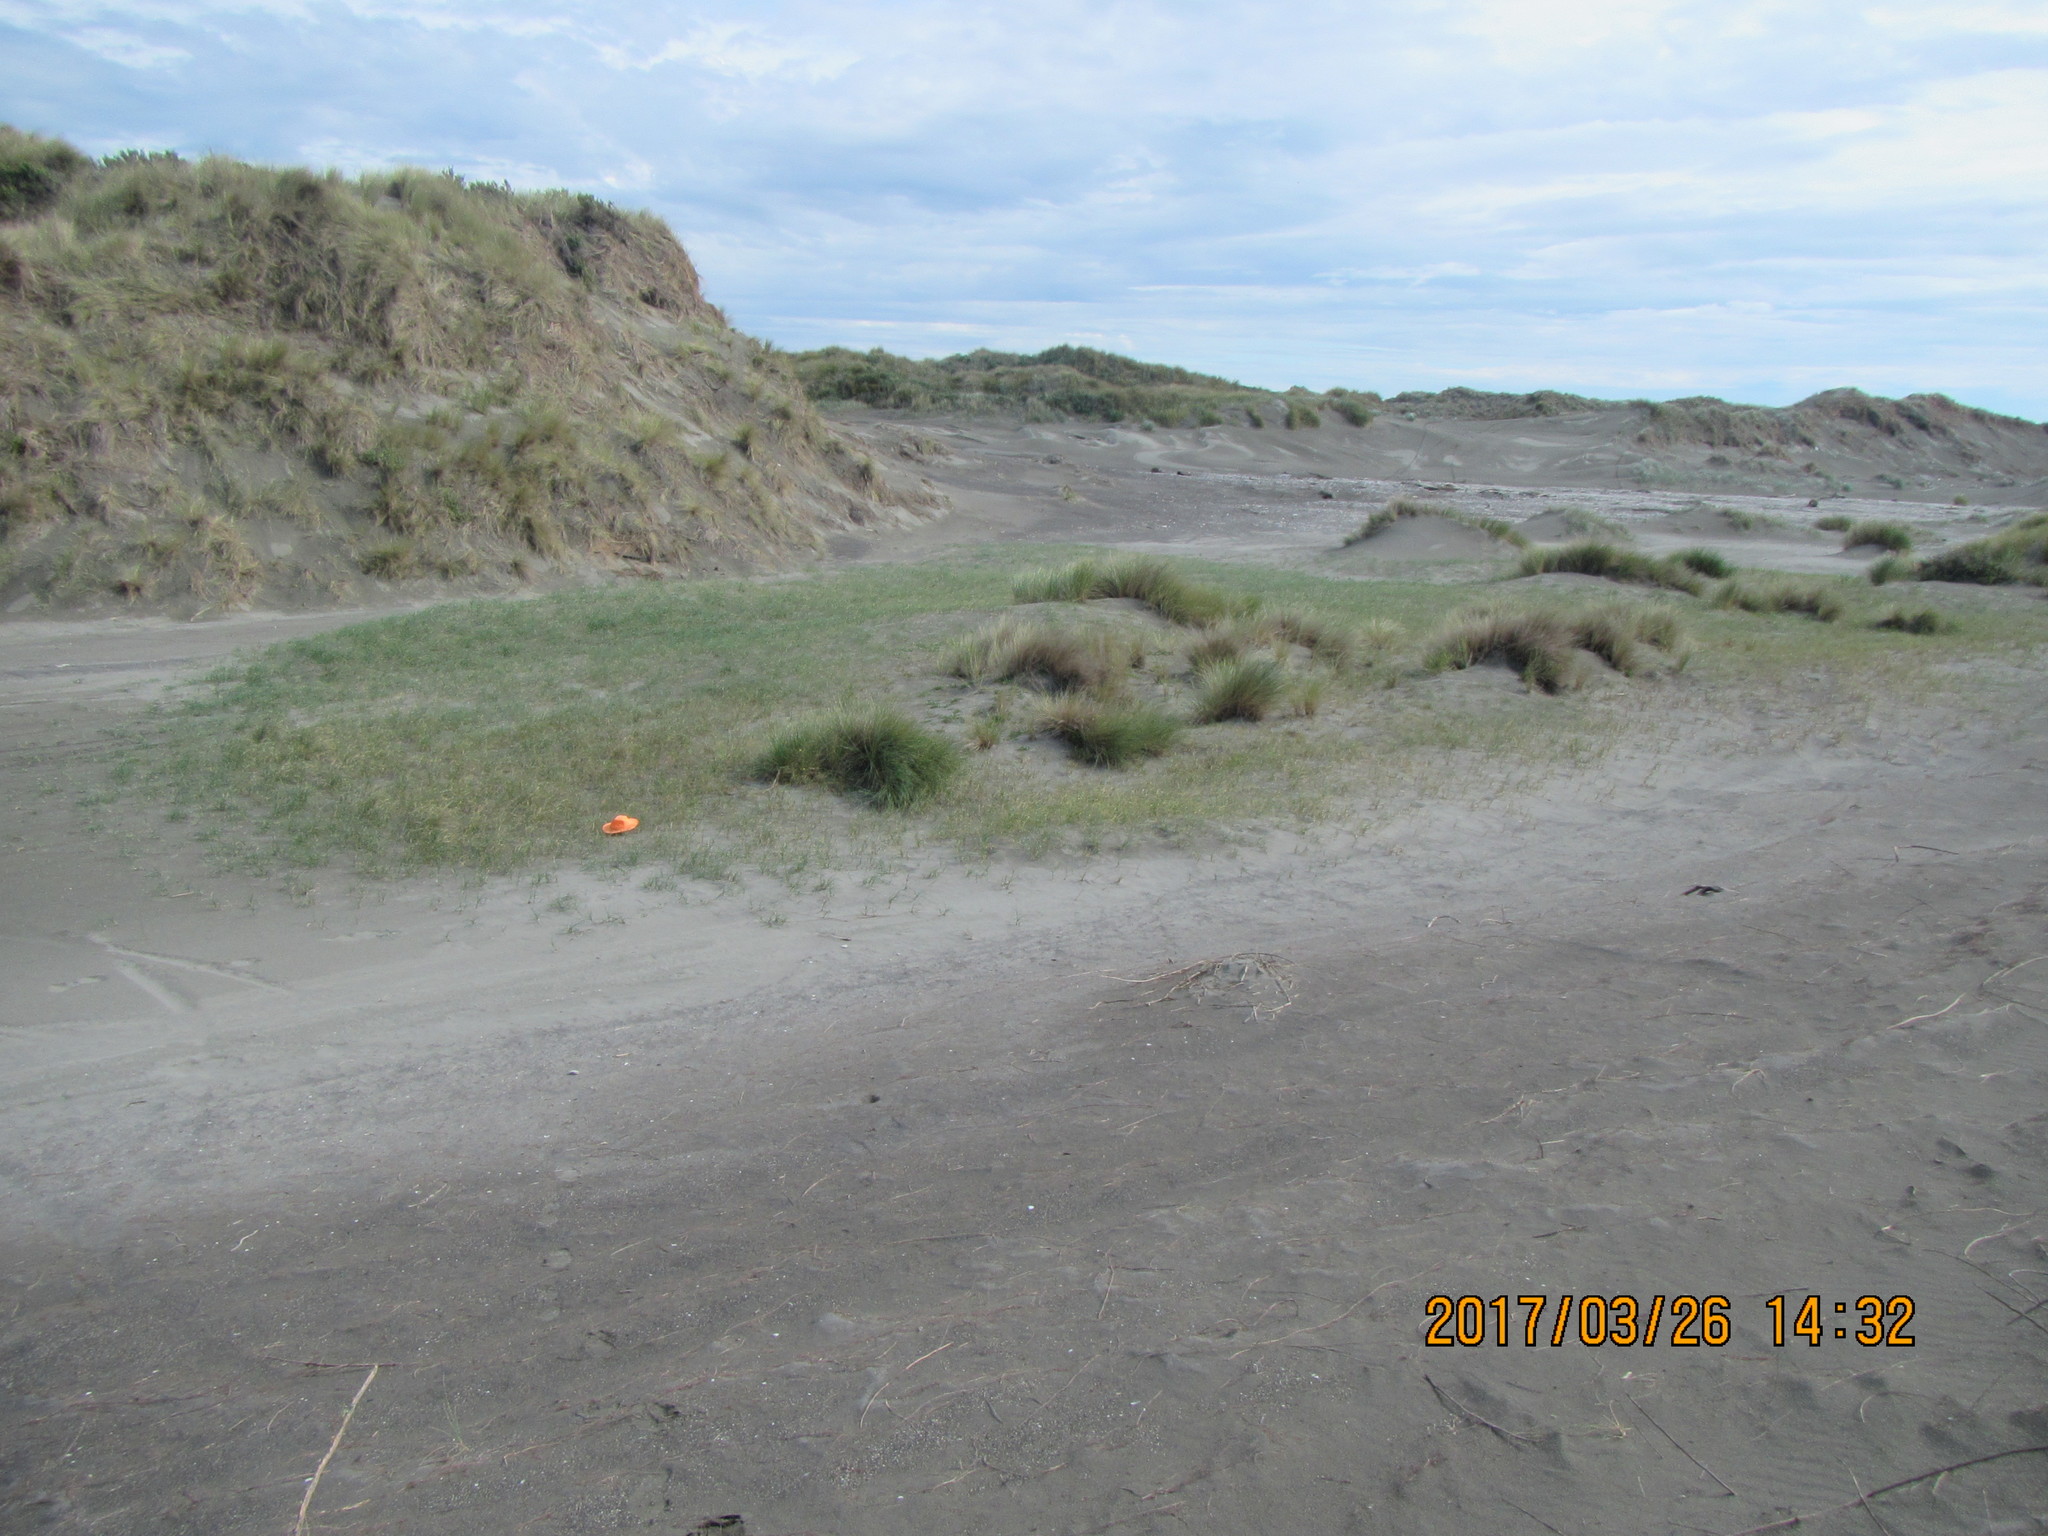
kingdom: Plantae
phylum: Tracheophyta
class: Liliopsida
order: Poales
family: Cyperaceae
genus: Carex
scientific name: Carex pumila
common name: Dwarf sedge
